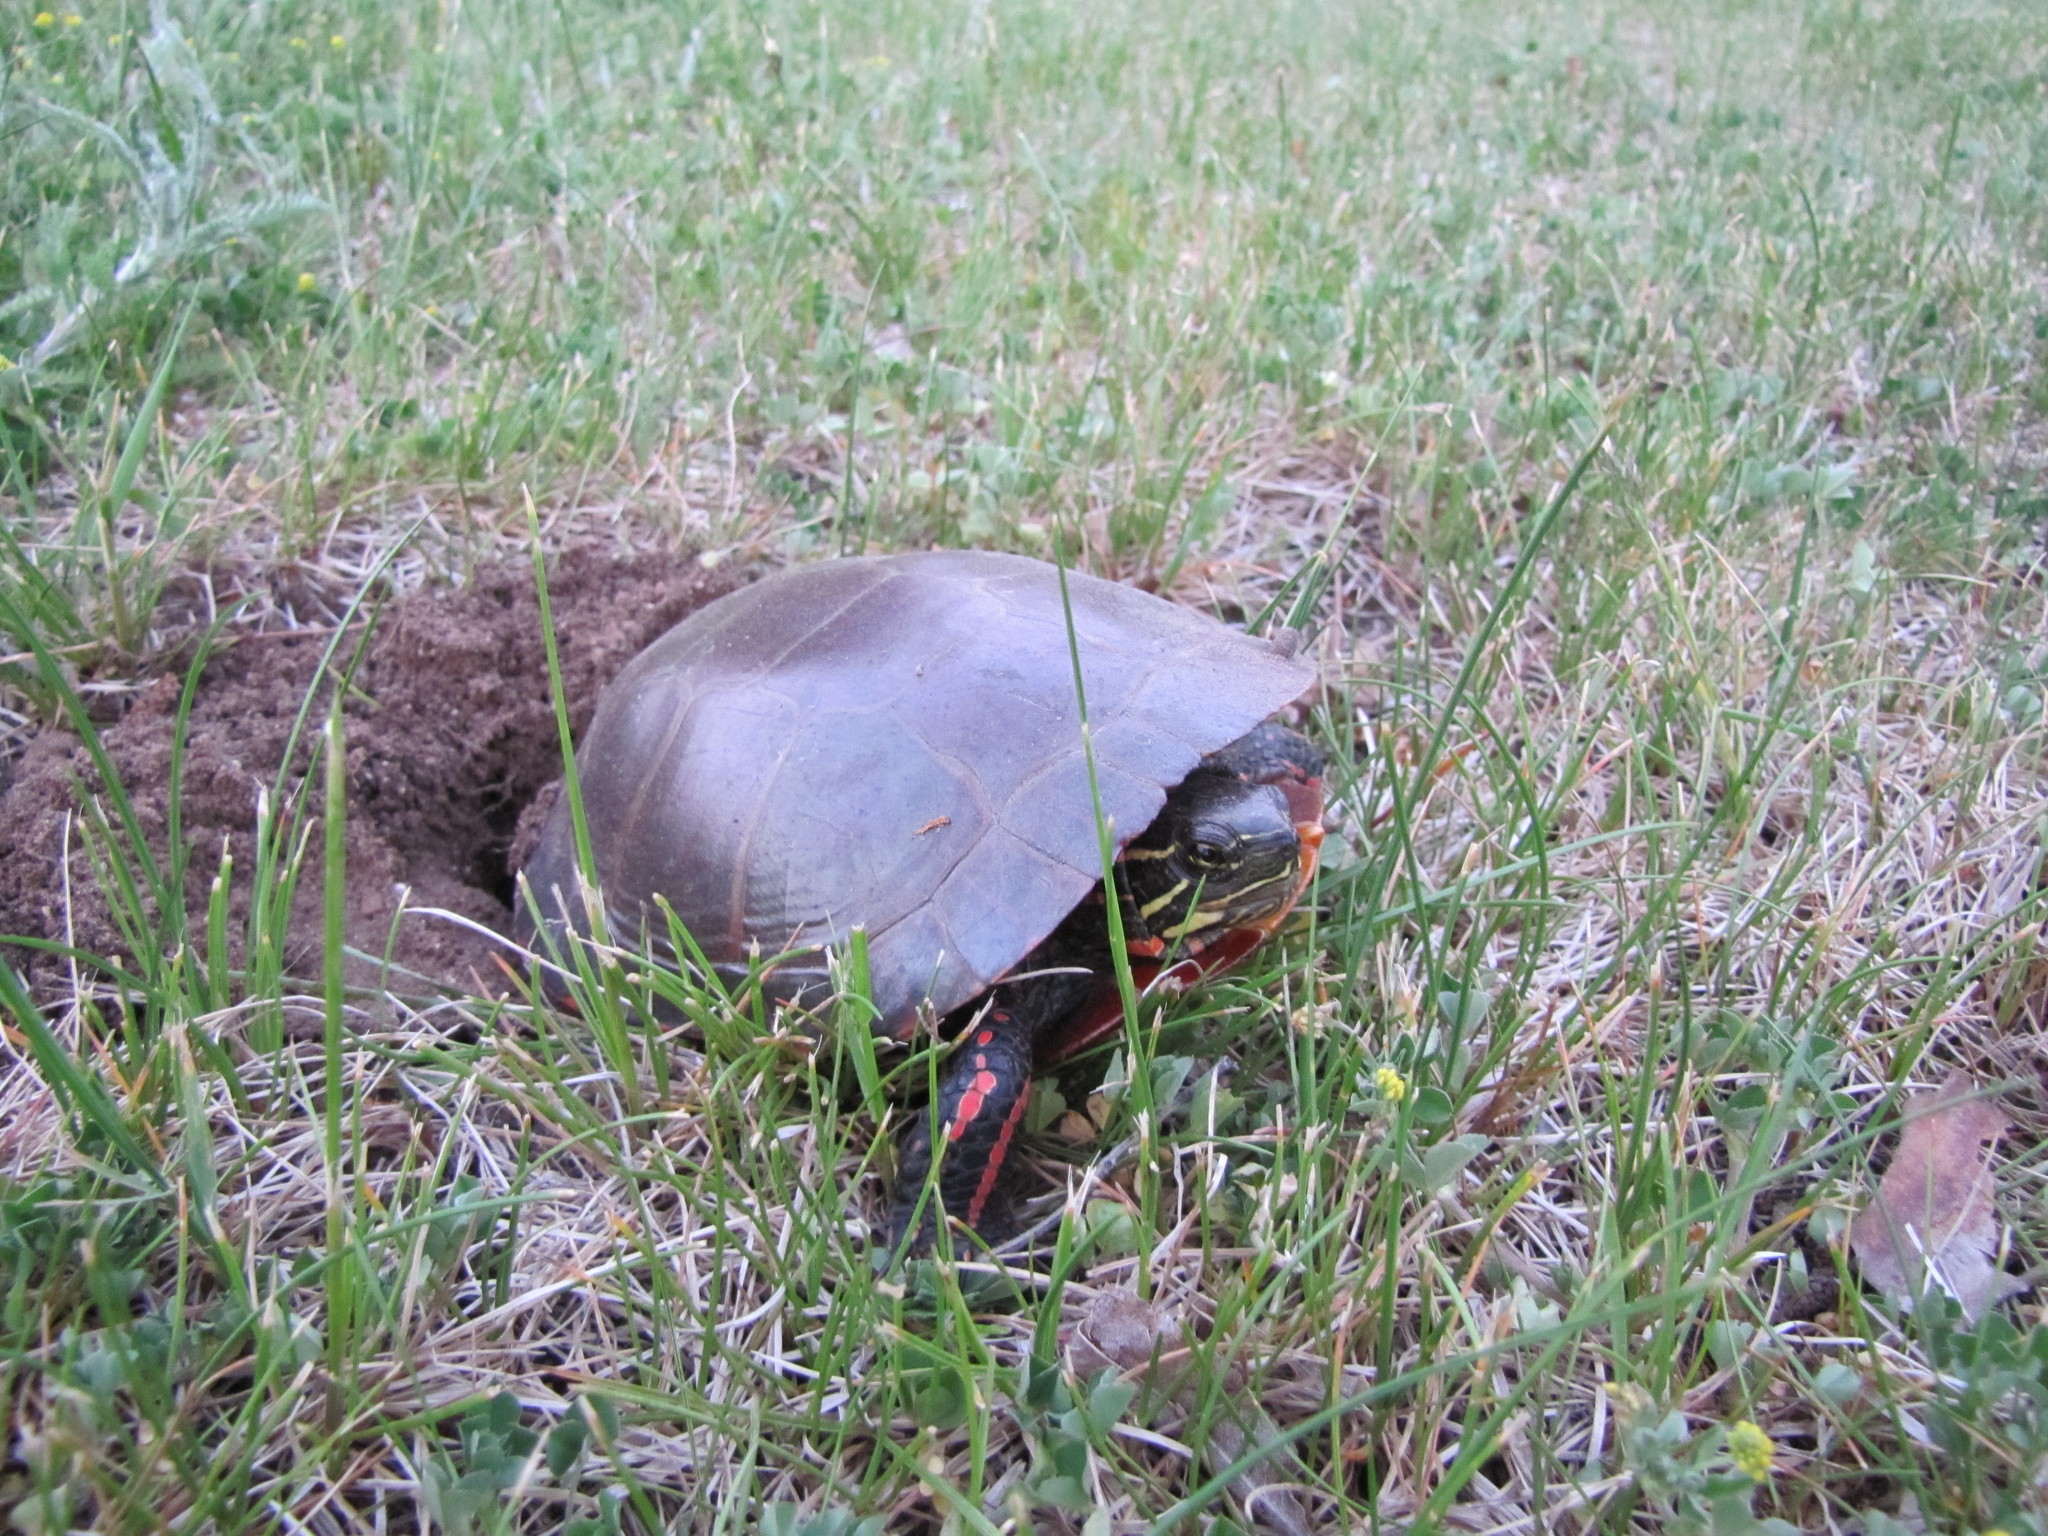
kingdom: Animalia
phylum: Chordata
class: Testudines
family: Emydidae
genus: Chrysemys
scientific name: Chrysemys picta
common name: Painted turtle
